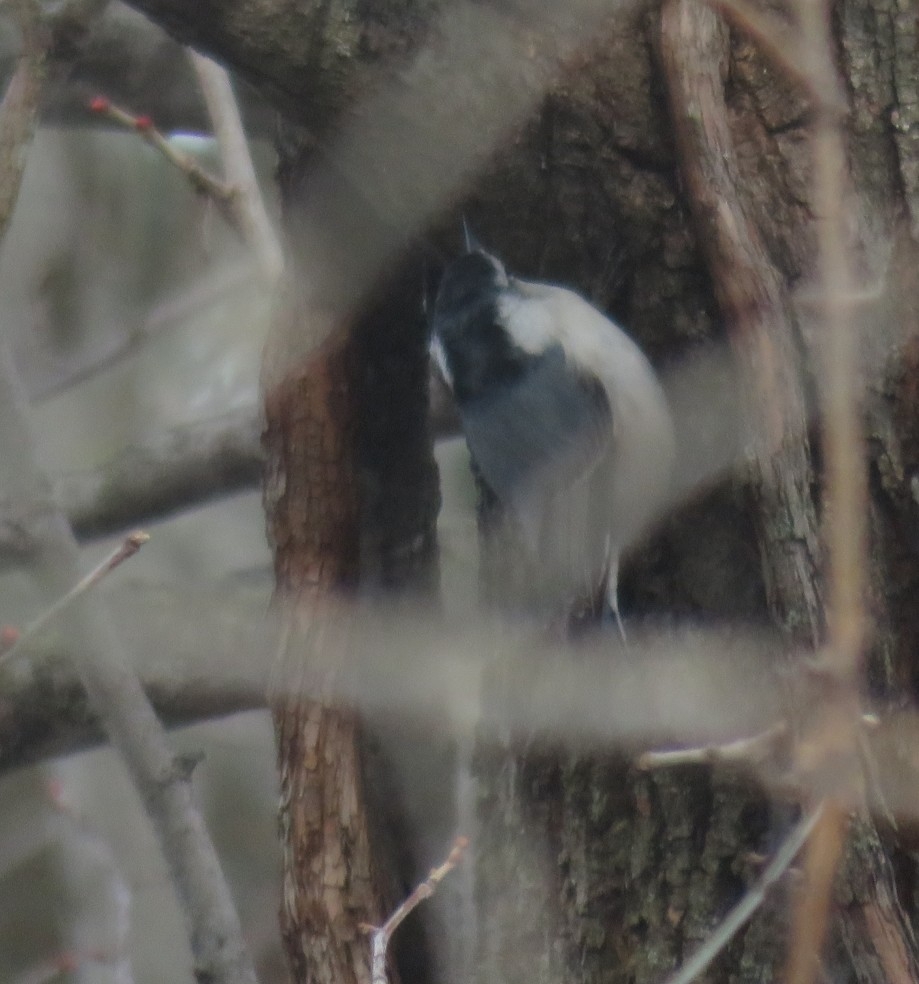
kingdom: Animalia
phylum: Chordata
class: Aves
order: Passeriformes
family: Sittidae
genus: Sitta
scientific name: Sitta carolinensis
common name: White-breasted nuthatch
